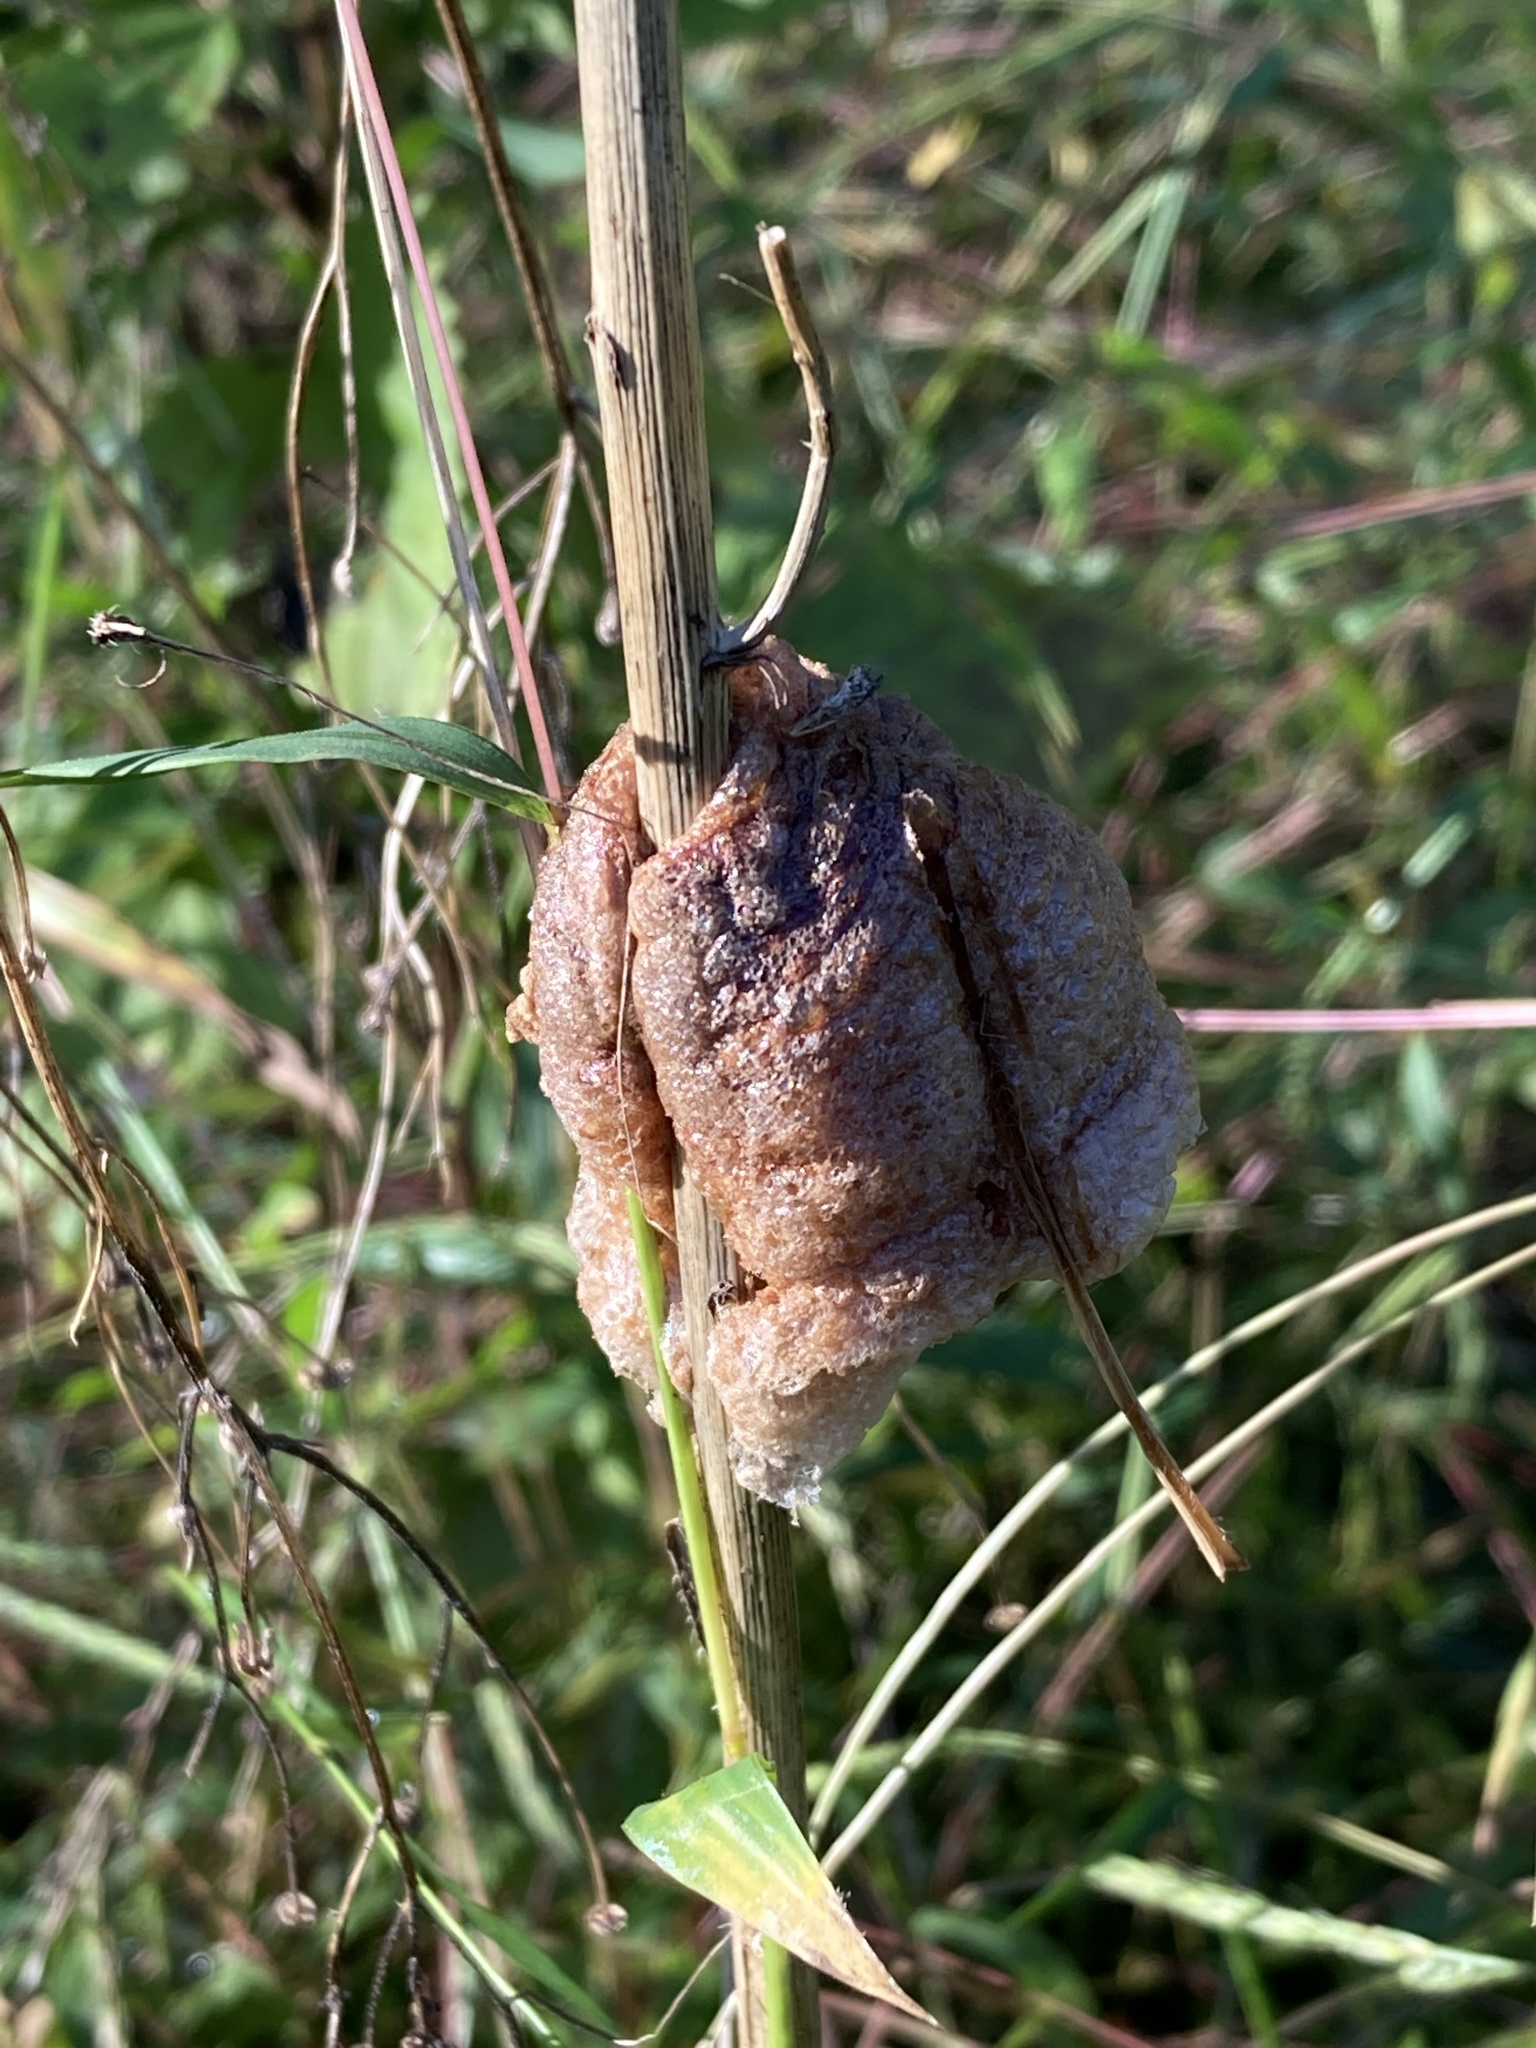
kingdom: Animalia
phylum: Arthropoda
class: Insecta
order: Mantodea
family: Mantidae
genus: Tenodera
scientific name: Tenodera sinensis
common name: Chinese mantis
